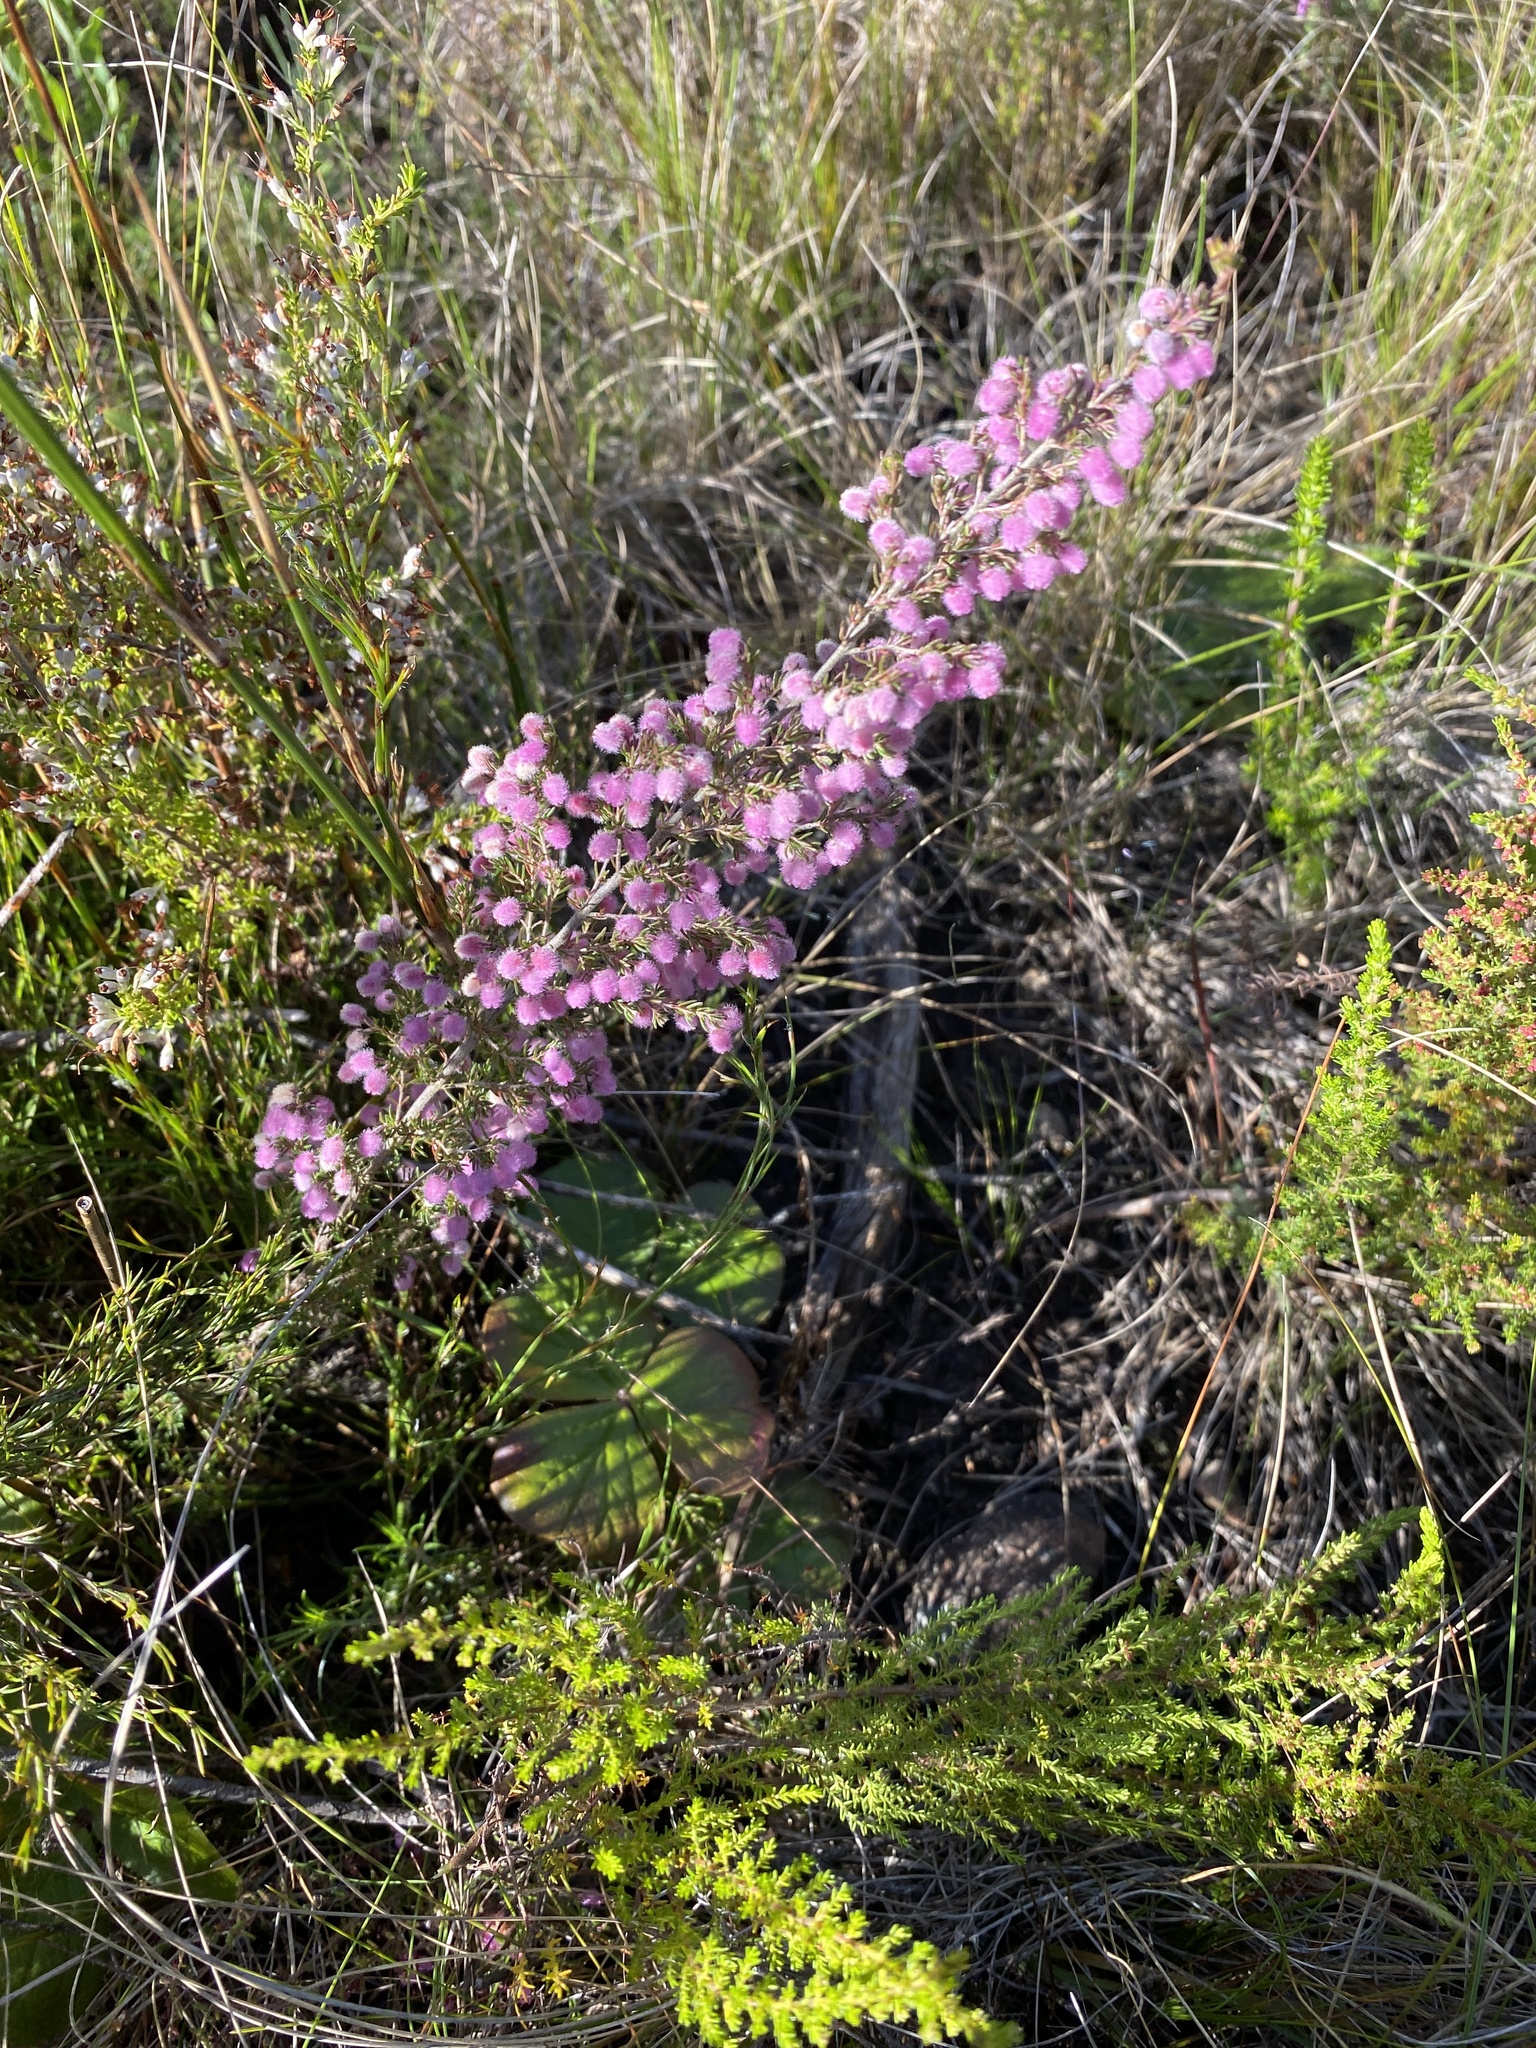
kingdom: Plantae
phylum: Tracheophyta
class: Magnoliopsida
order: Ericales
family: Ericaceae
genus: Erica
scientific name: Erica ovina
